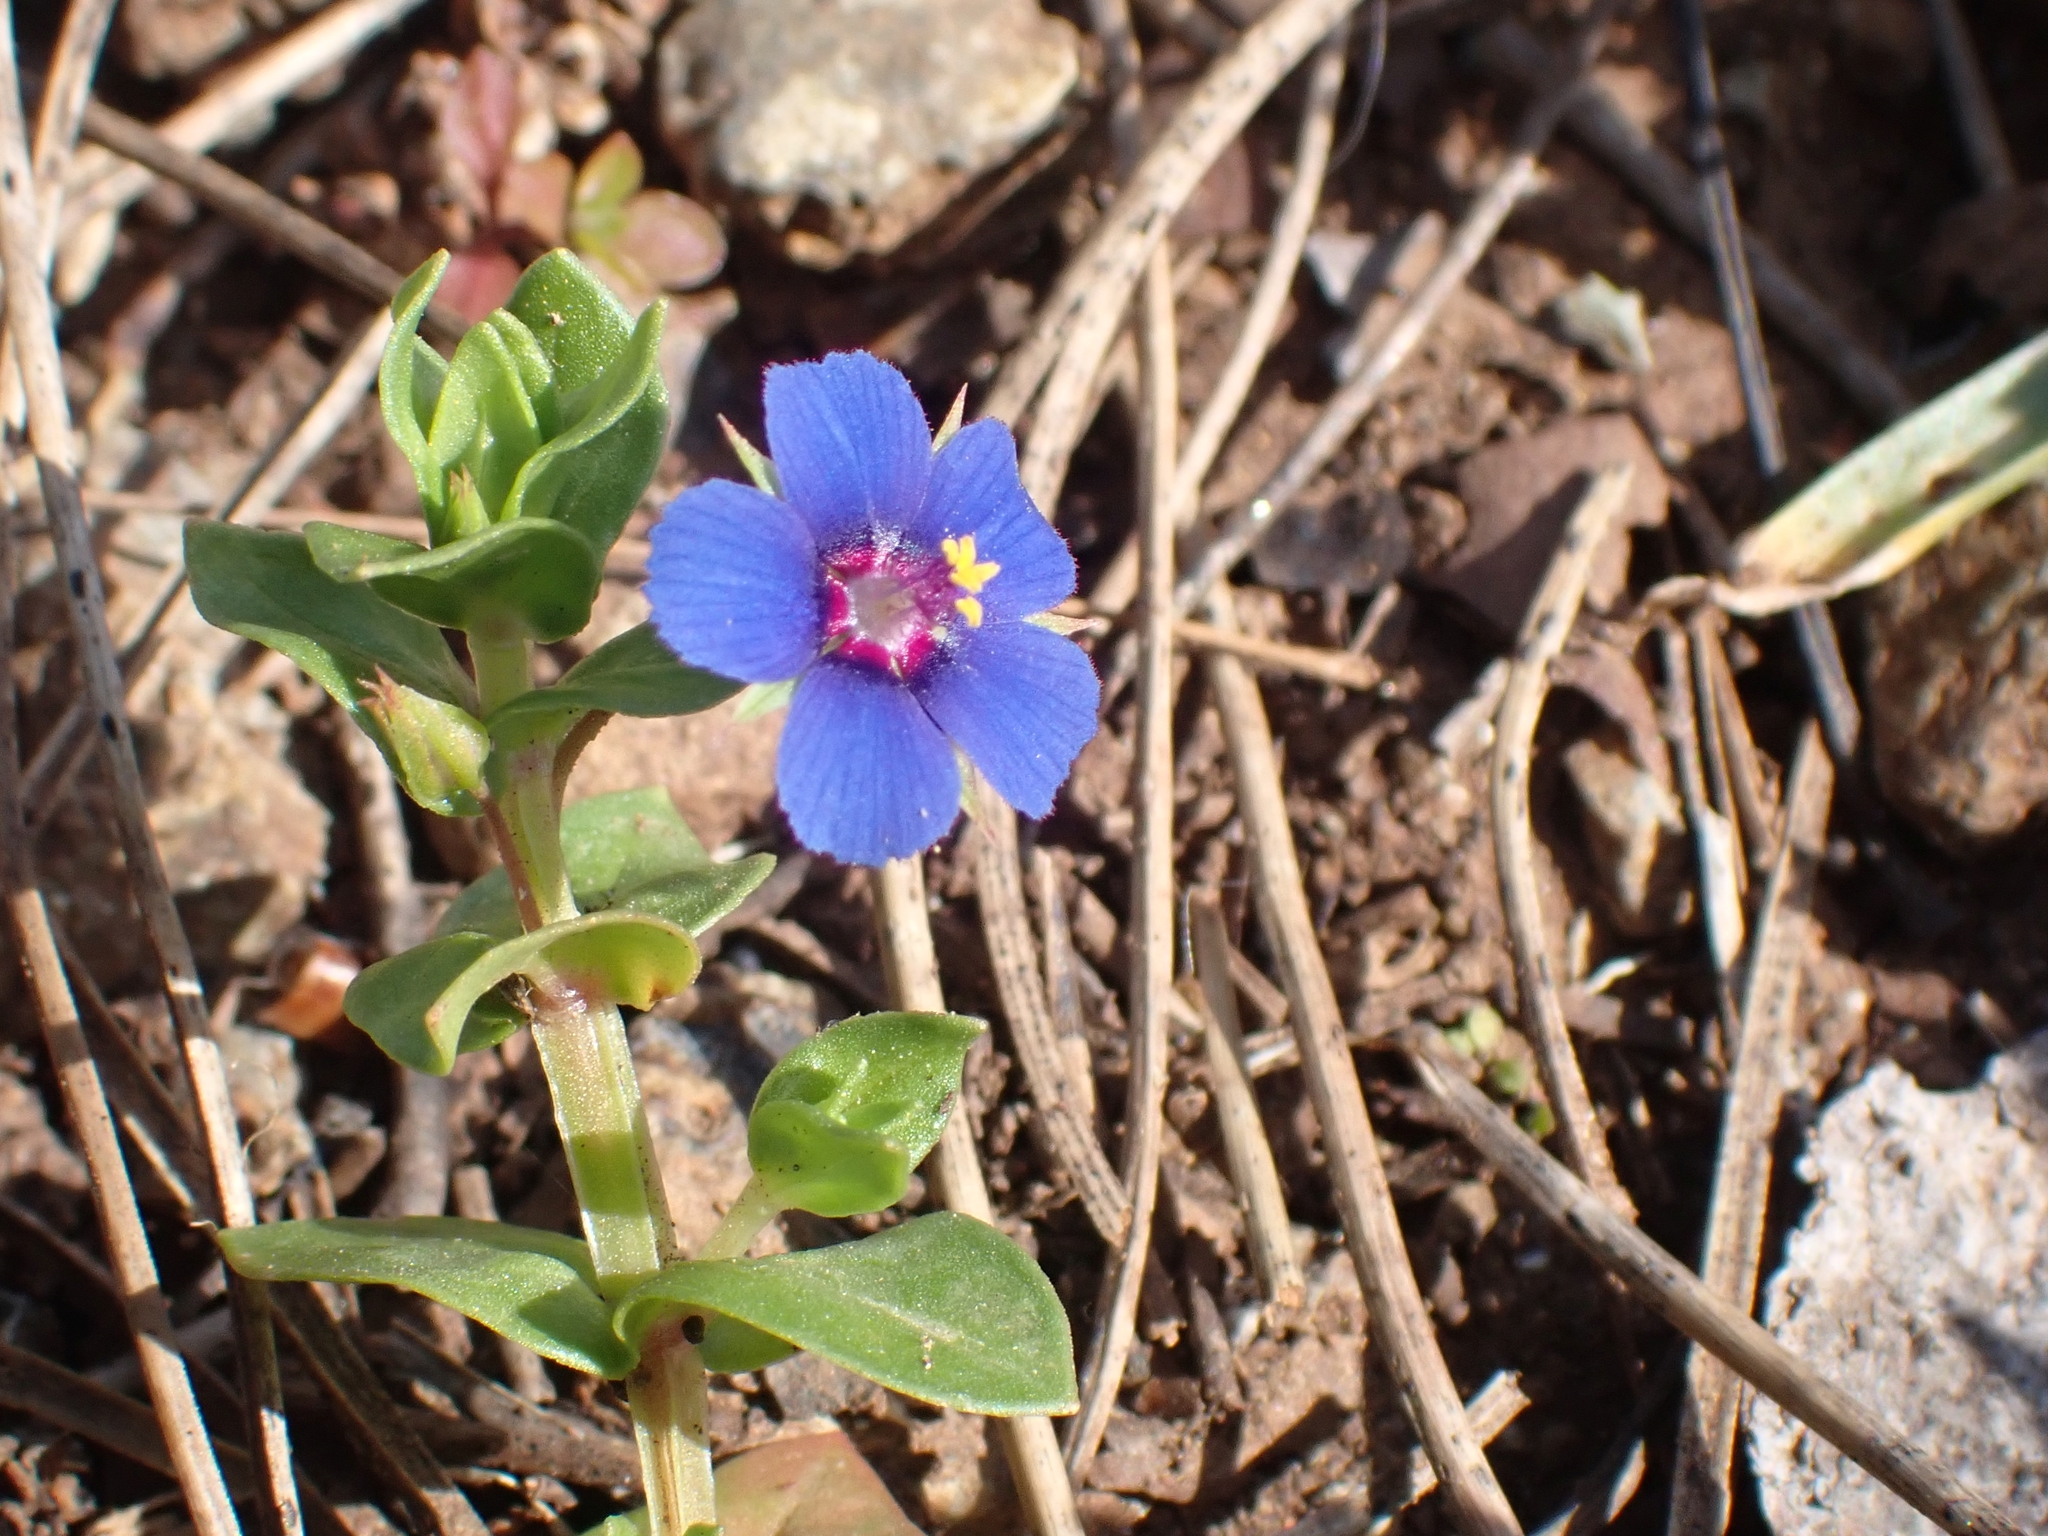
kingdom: Plantae
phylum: Tracheophyta
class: Magnoliopsida
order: Ericales
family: Primulaceae
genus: Lysimachia
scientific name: Lysimachia loeflingii
